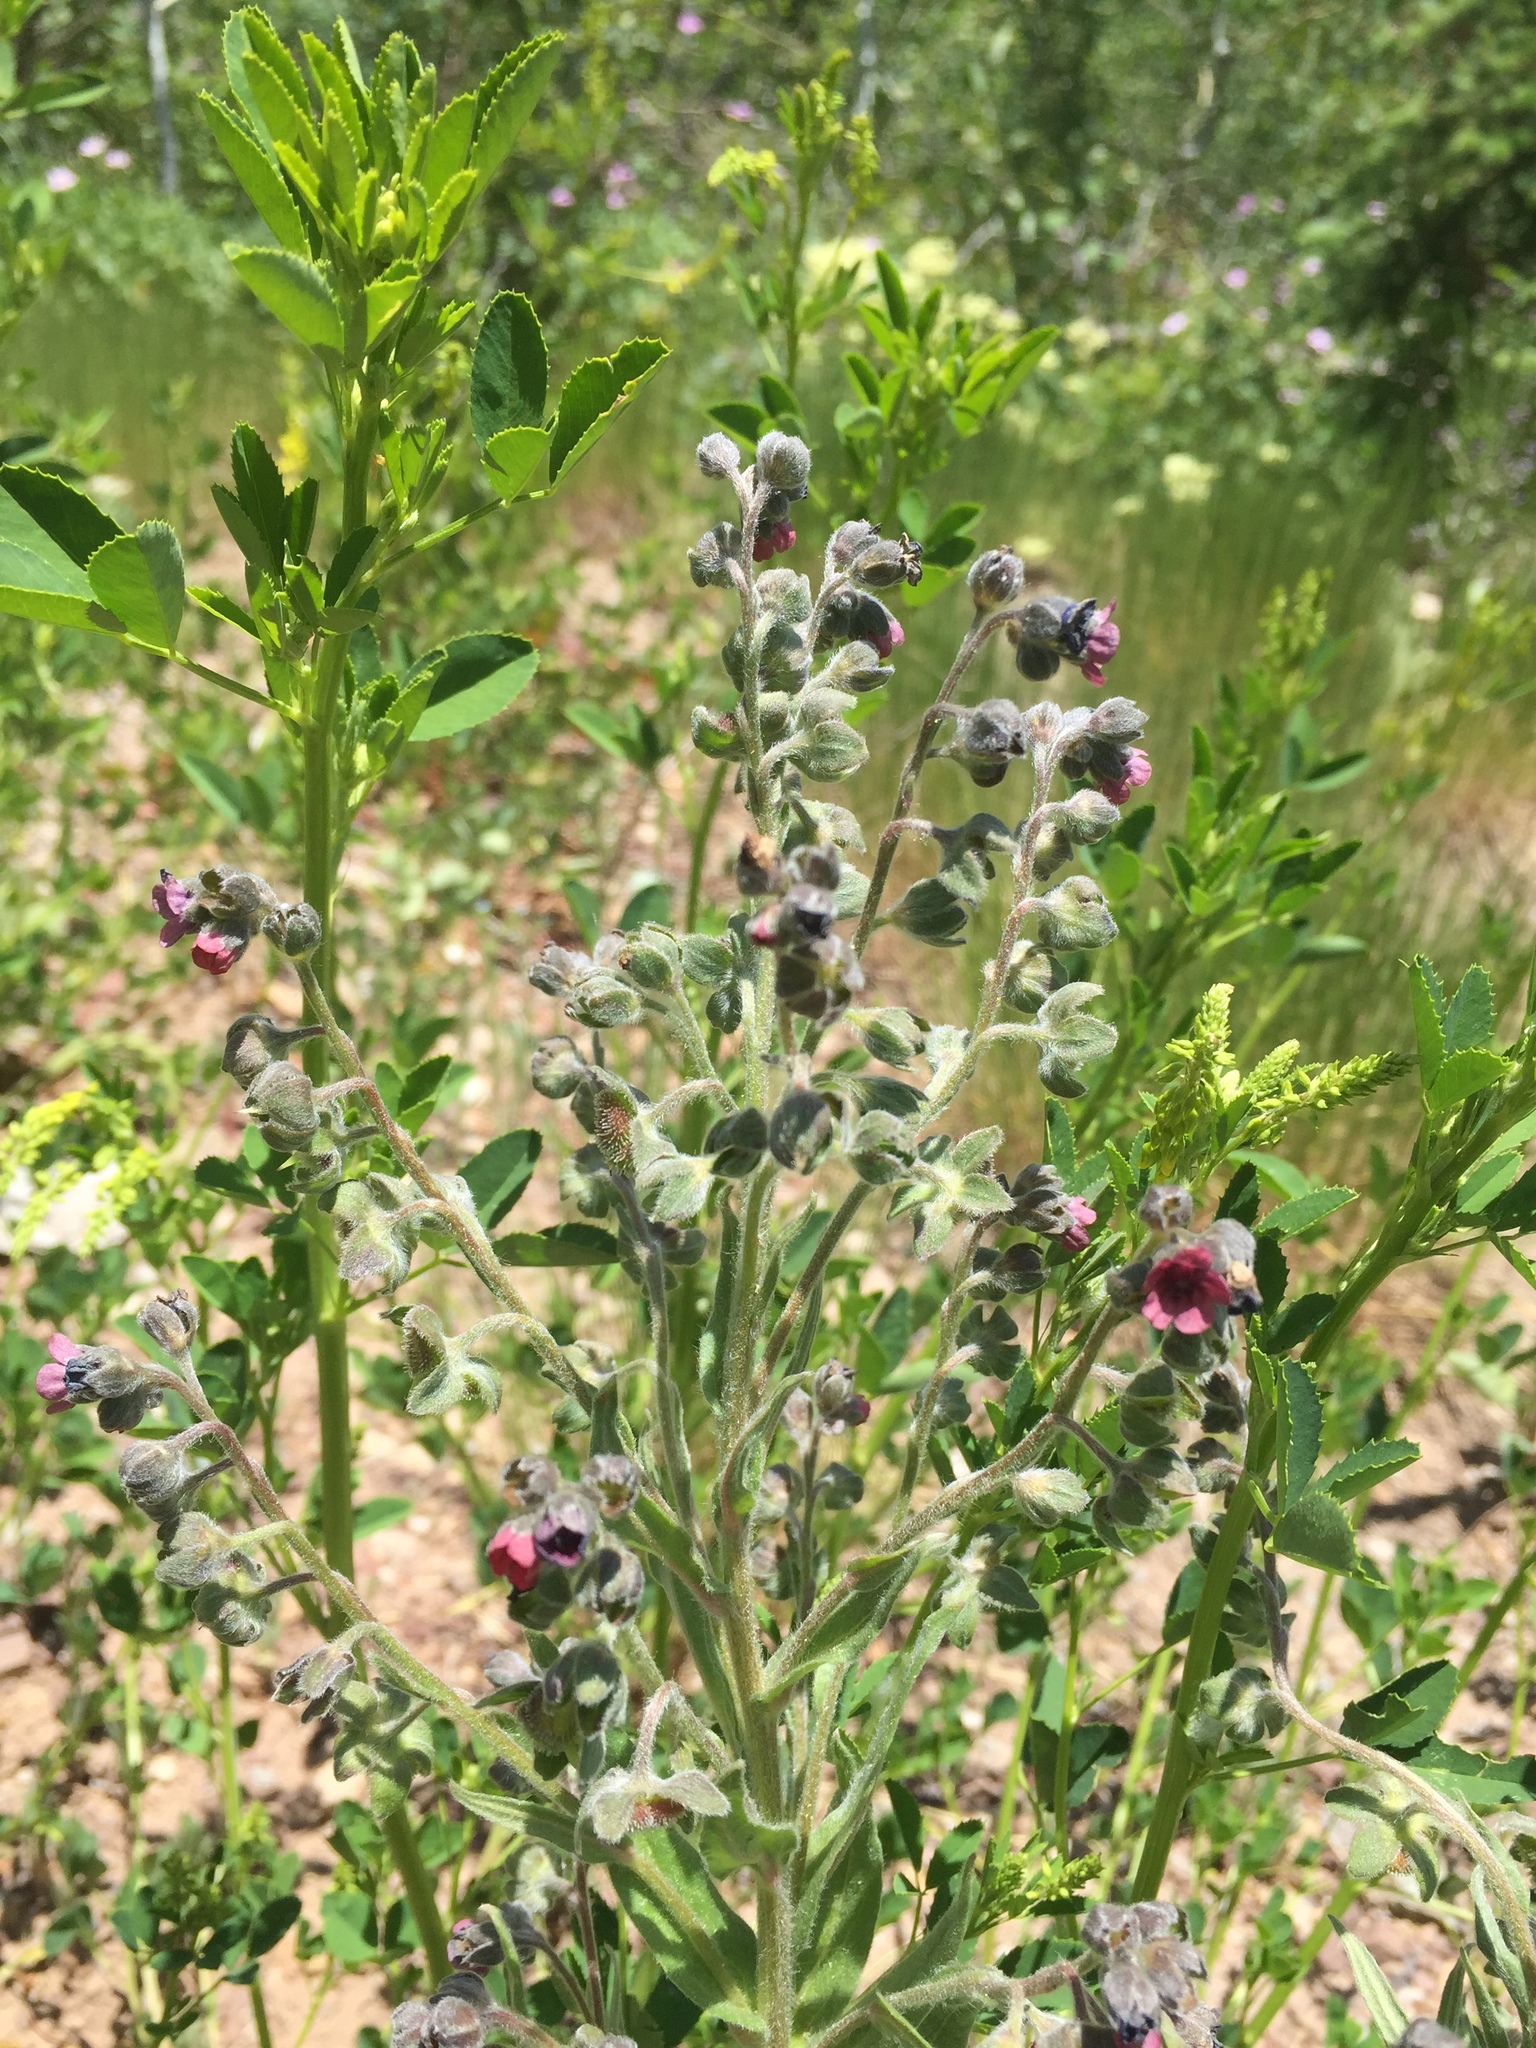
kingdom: Plantae
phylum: Tracheophyta
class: Magnoliopsida
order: Boraginales
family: Boraginaceae
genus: Cynoglossum
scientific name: Cynoglossum officinale
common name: Hound's-tongue
